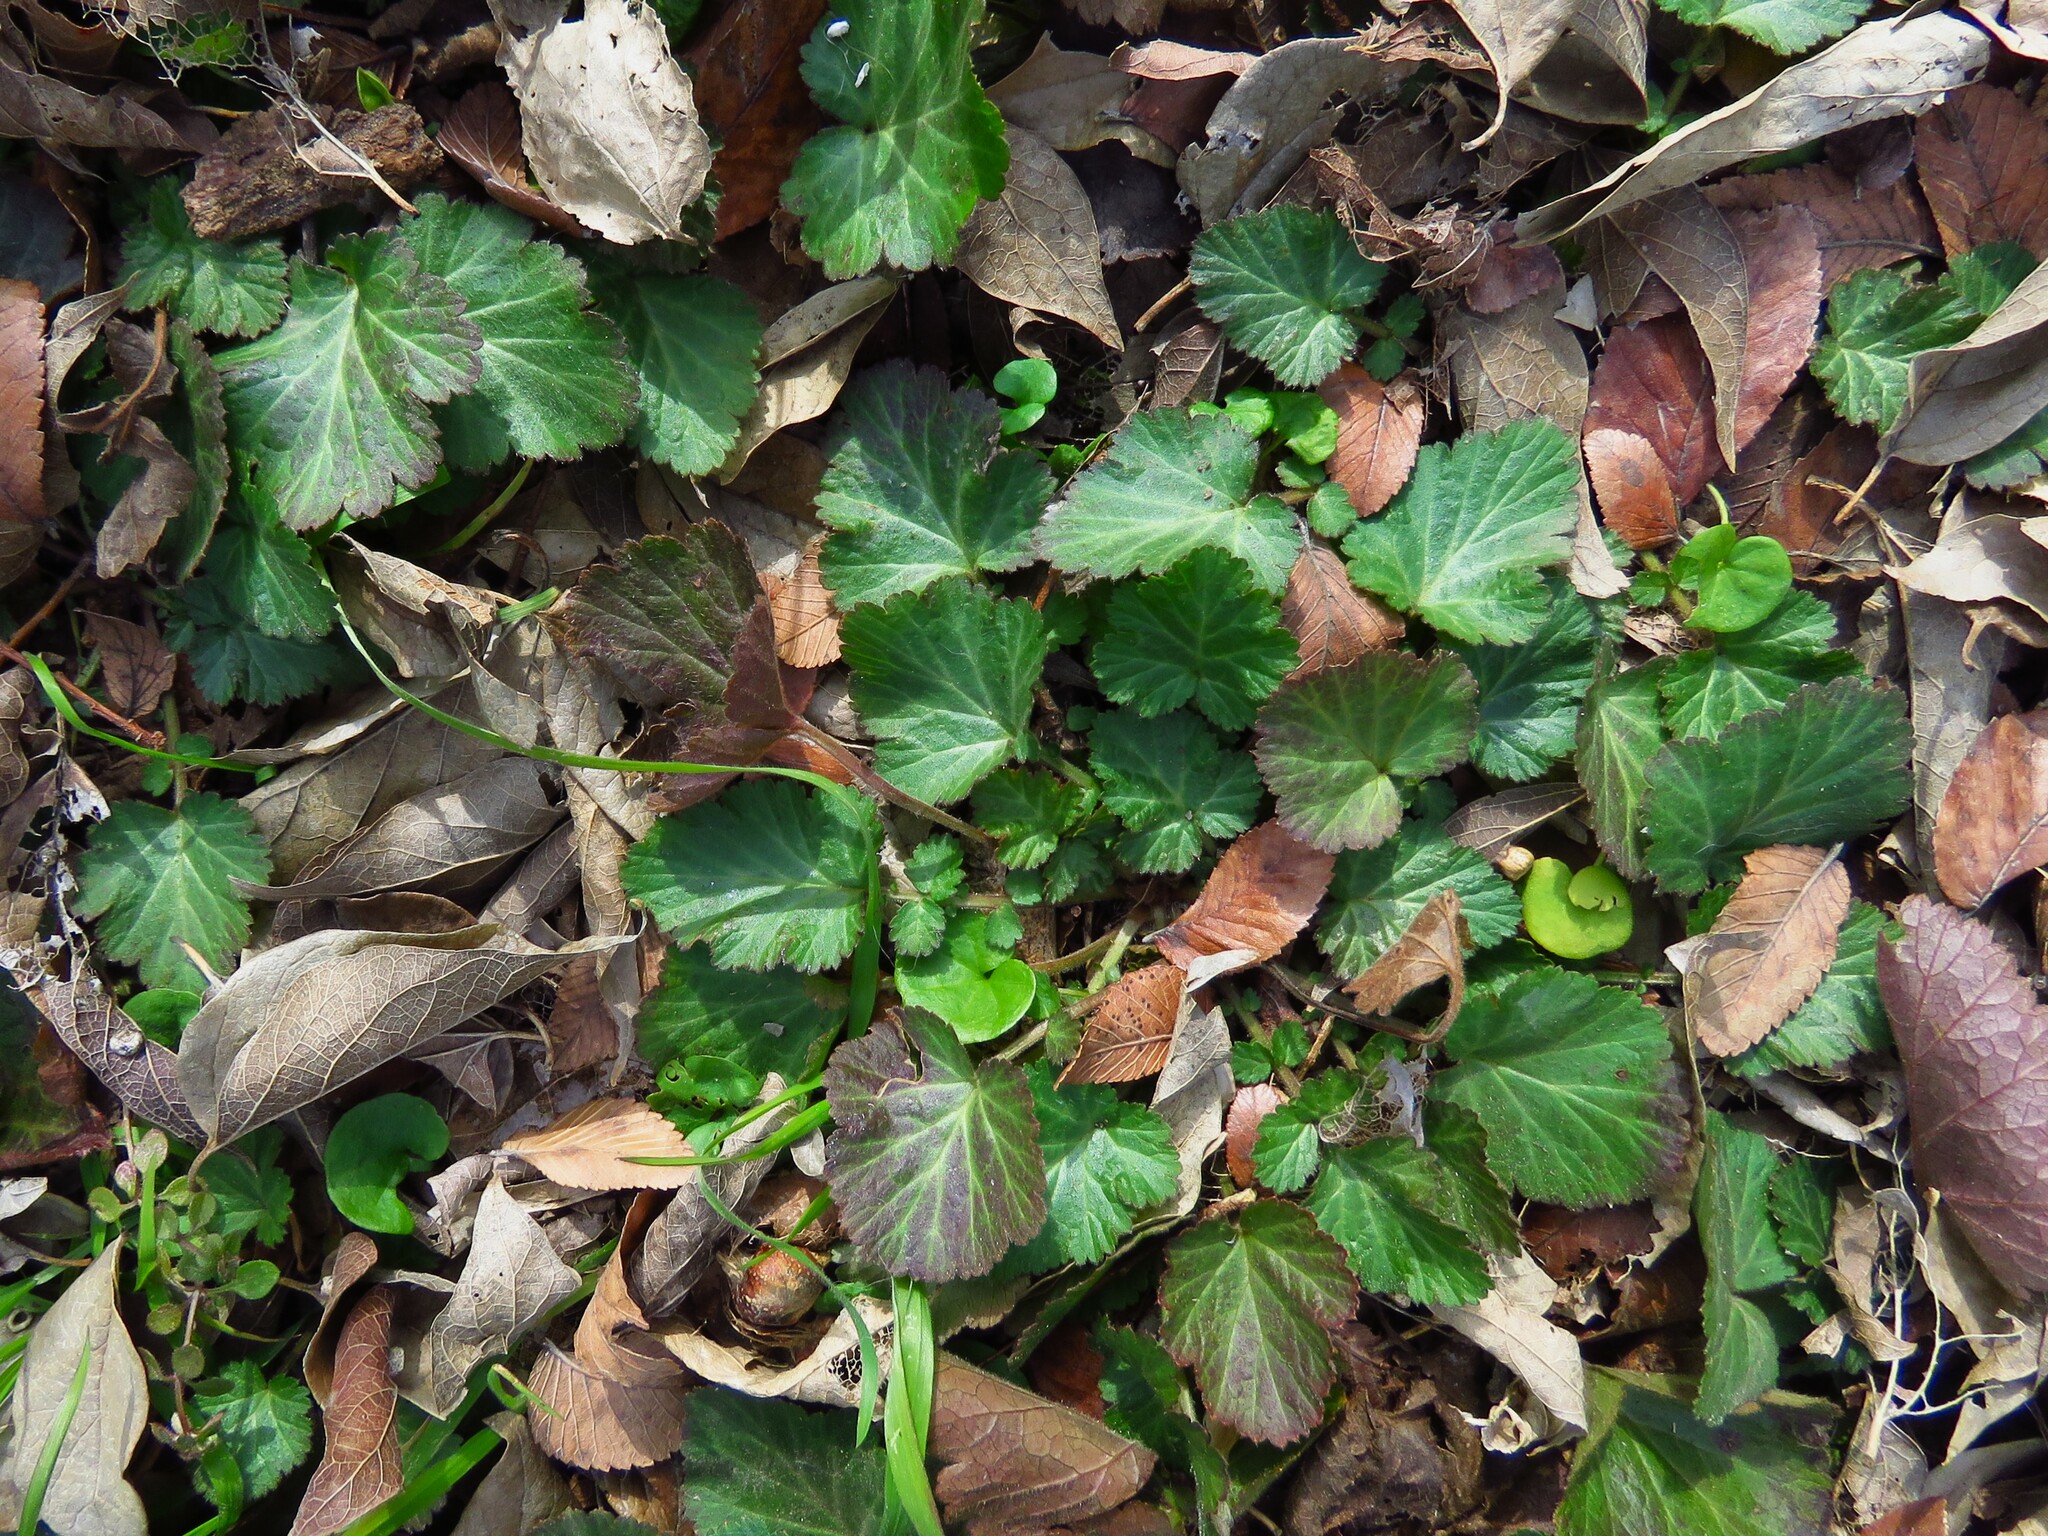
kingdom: Plantae
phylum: Tracheophyta
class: Magnoliopsida
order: Rosales
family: Rosaceae
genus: Geum
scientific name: Geum canadense
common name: White avens
